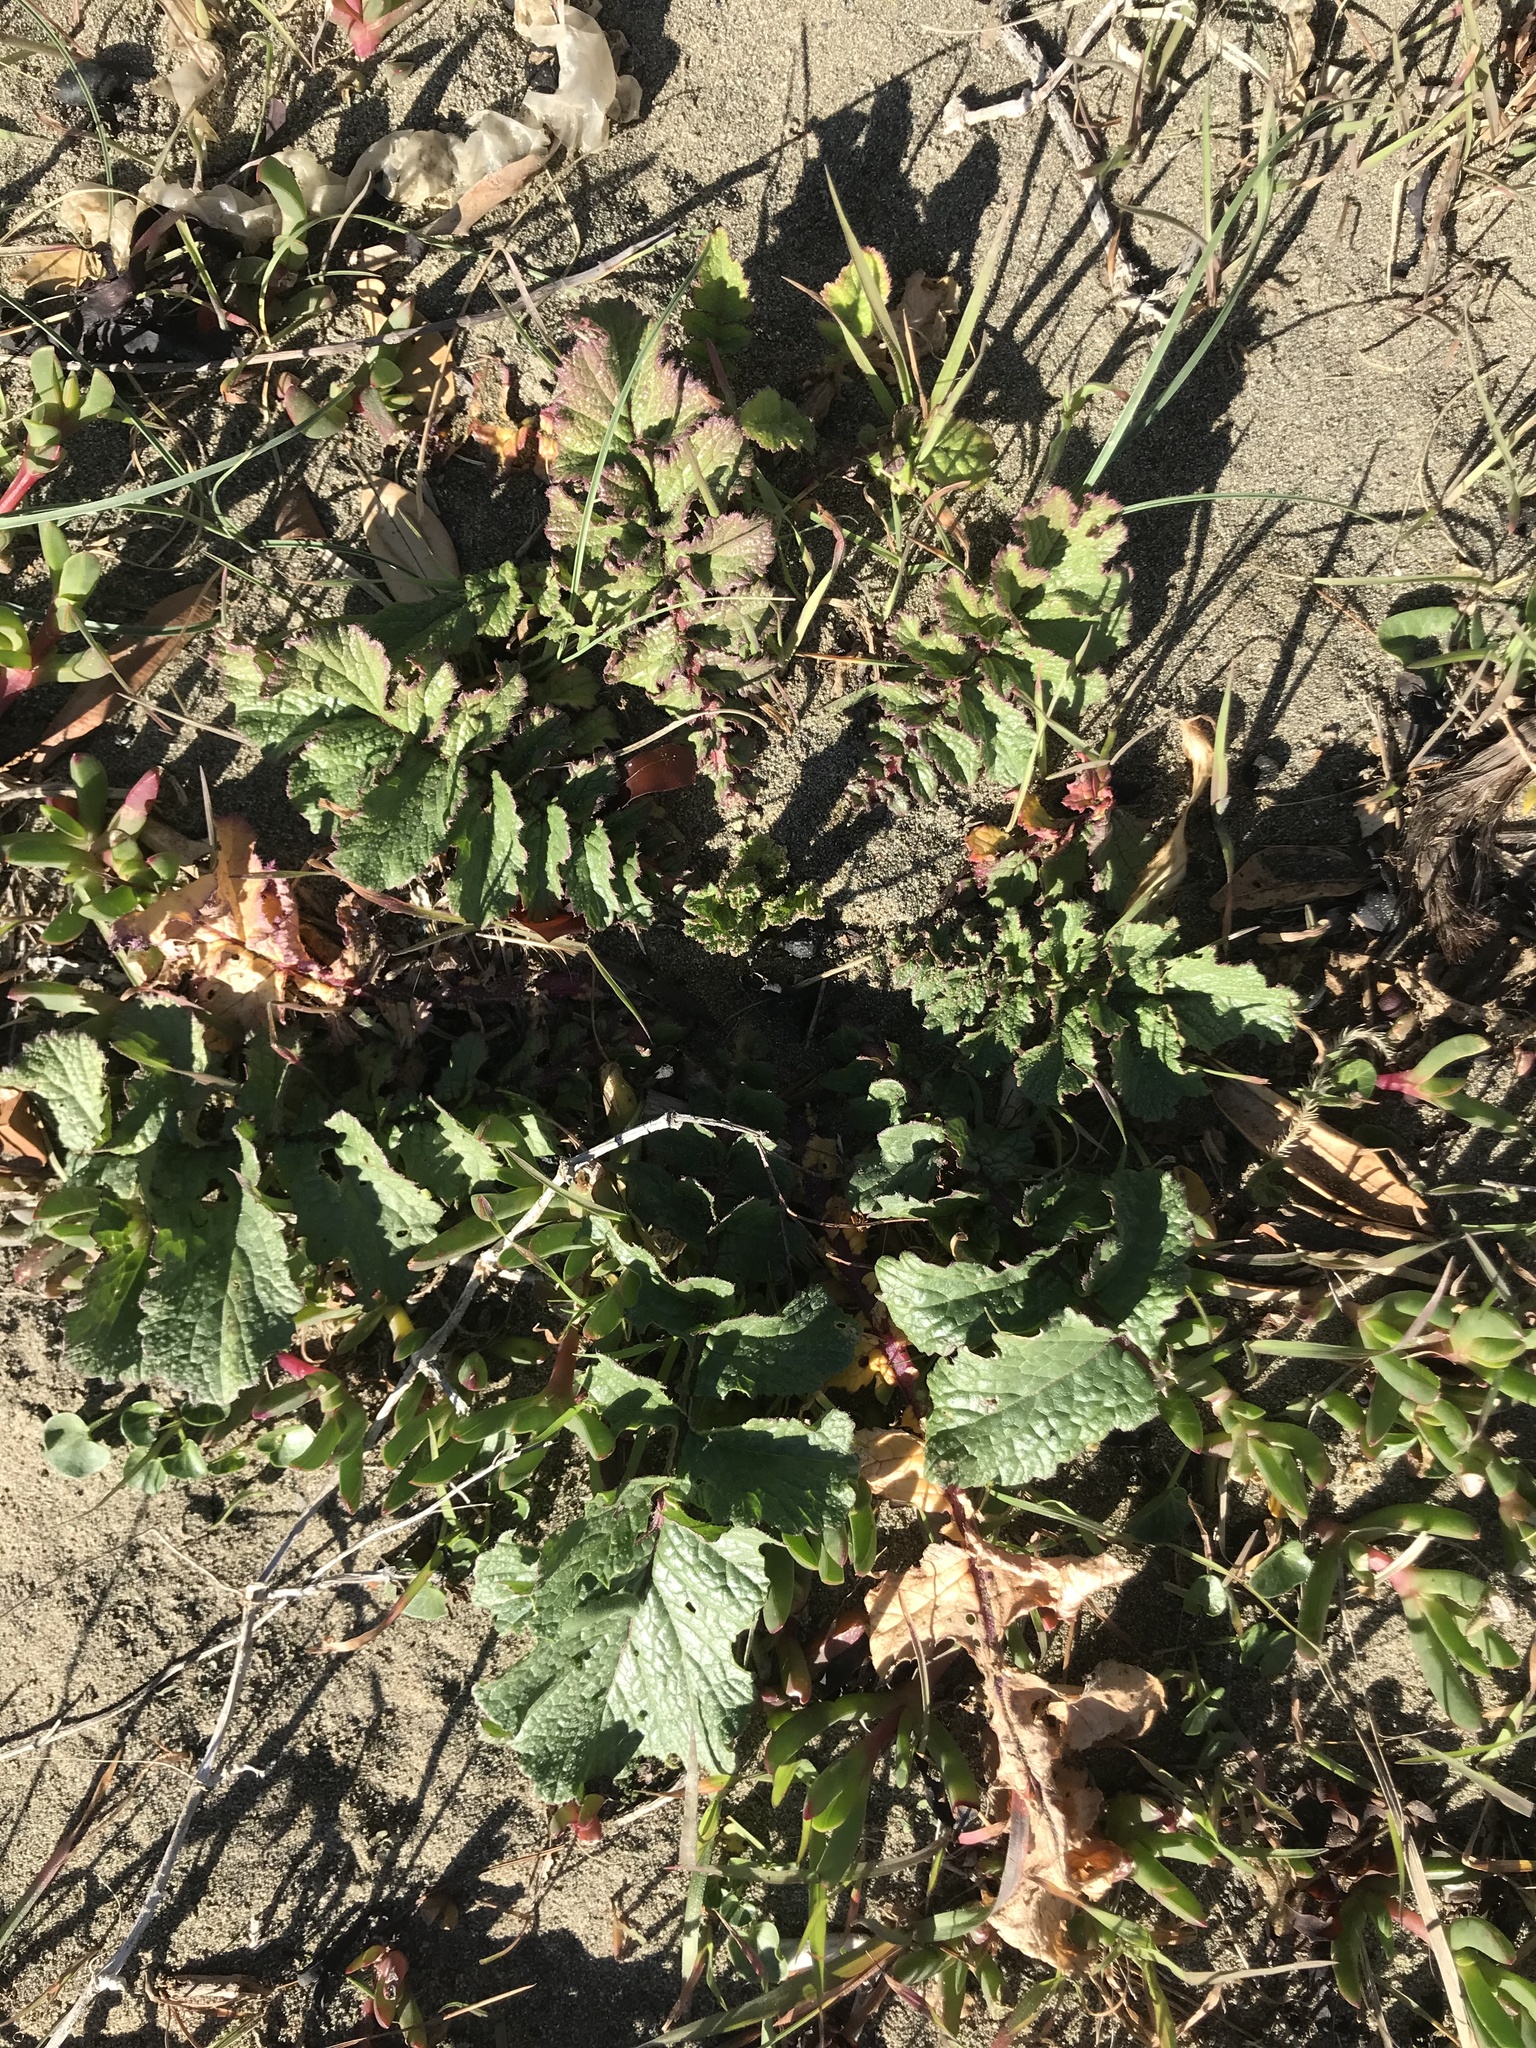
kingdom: Plantae
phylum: Tracheophyta
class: Magnoliopsida
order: Brassicales
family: Brassicaceae
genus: Raphanus
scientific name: Raphanus raphanistrum
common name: Wild radish
